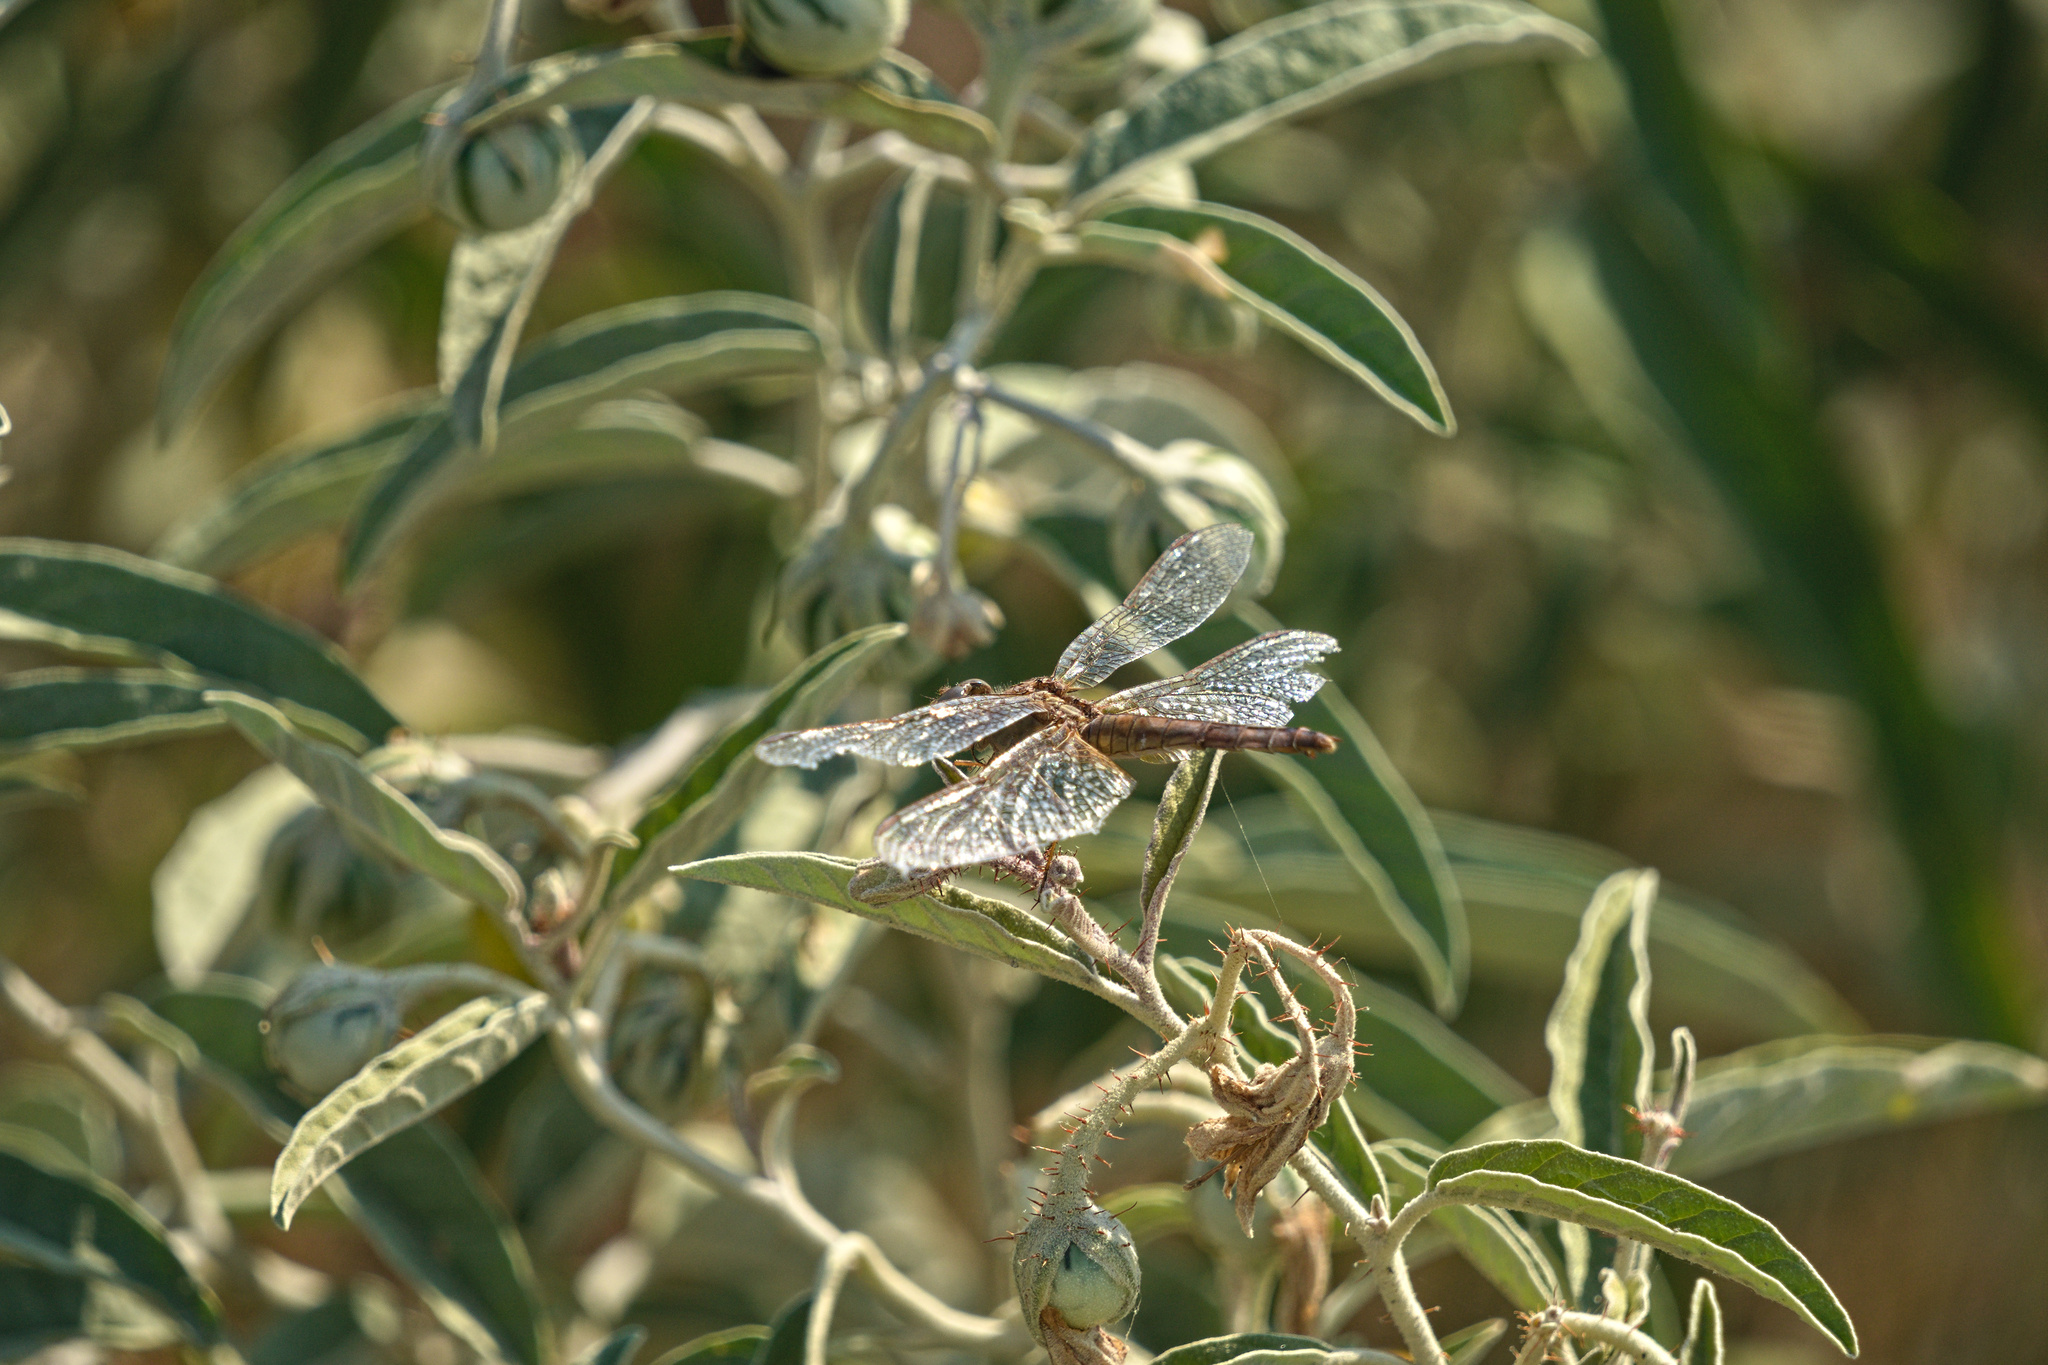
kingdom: Animalia
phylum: Arthropoda
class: Insecta
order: Odonata
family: Libellulidae
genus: Sympetrum
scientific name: Sympetrum meridionale
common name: Southern darter
